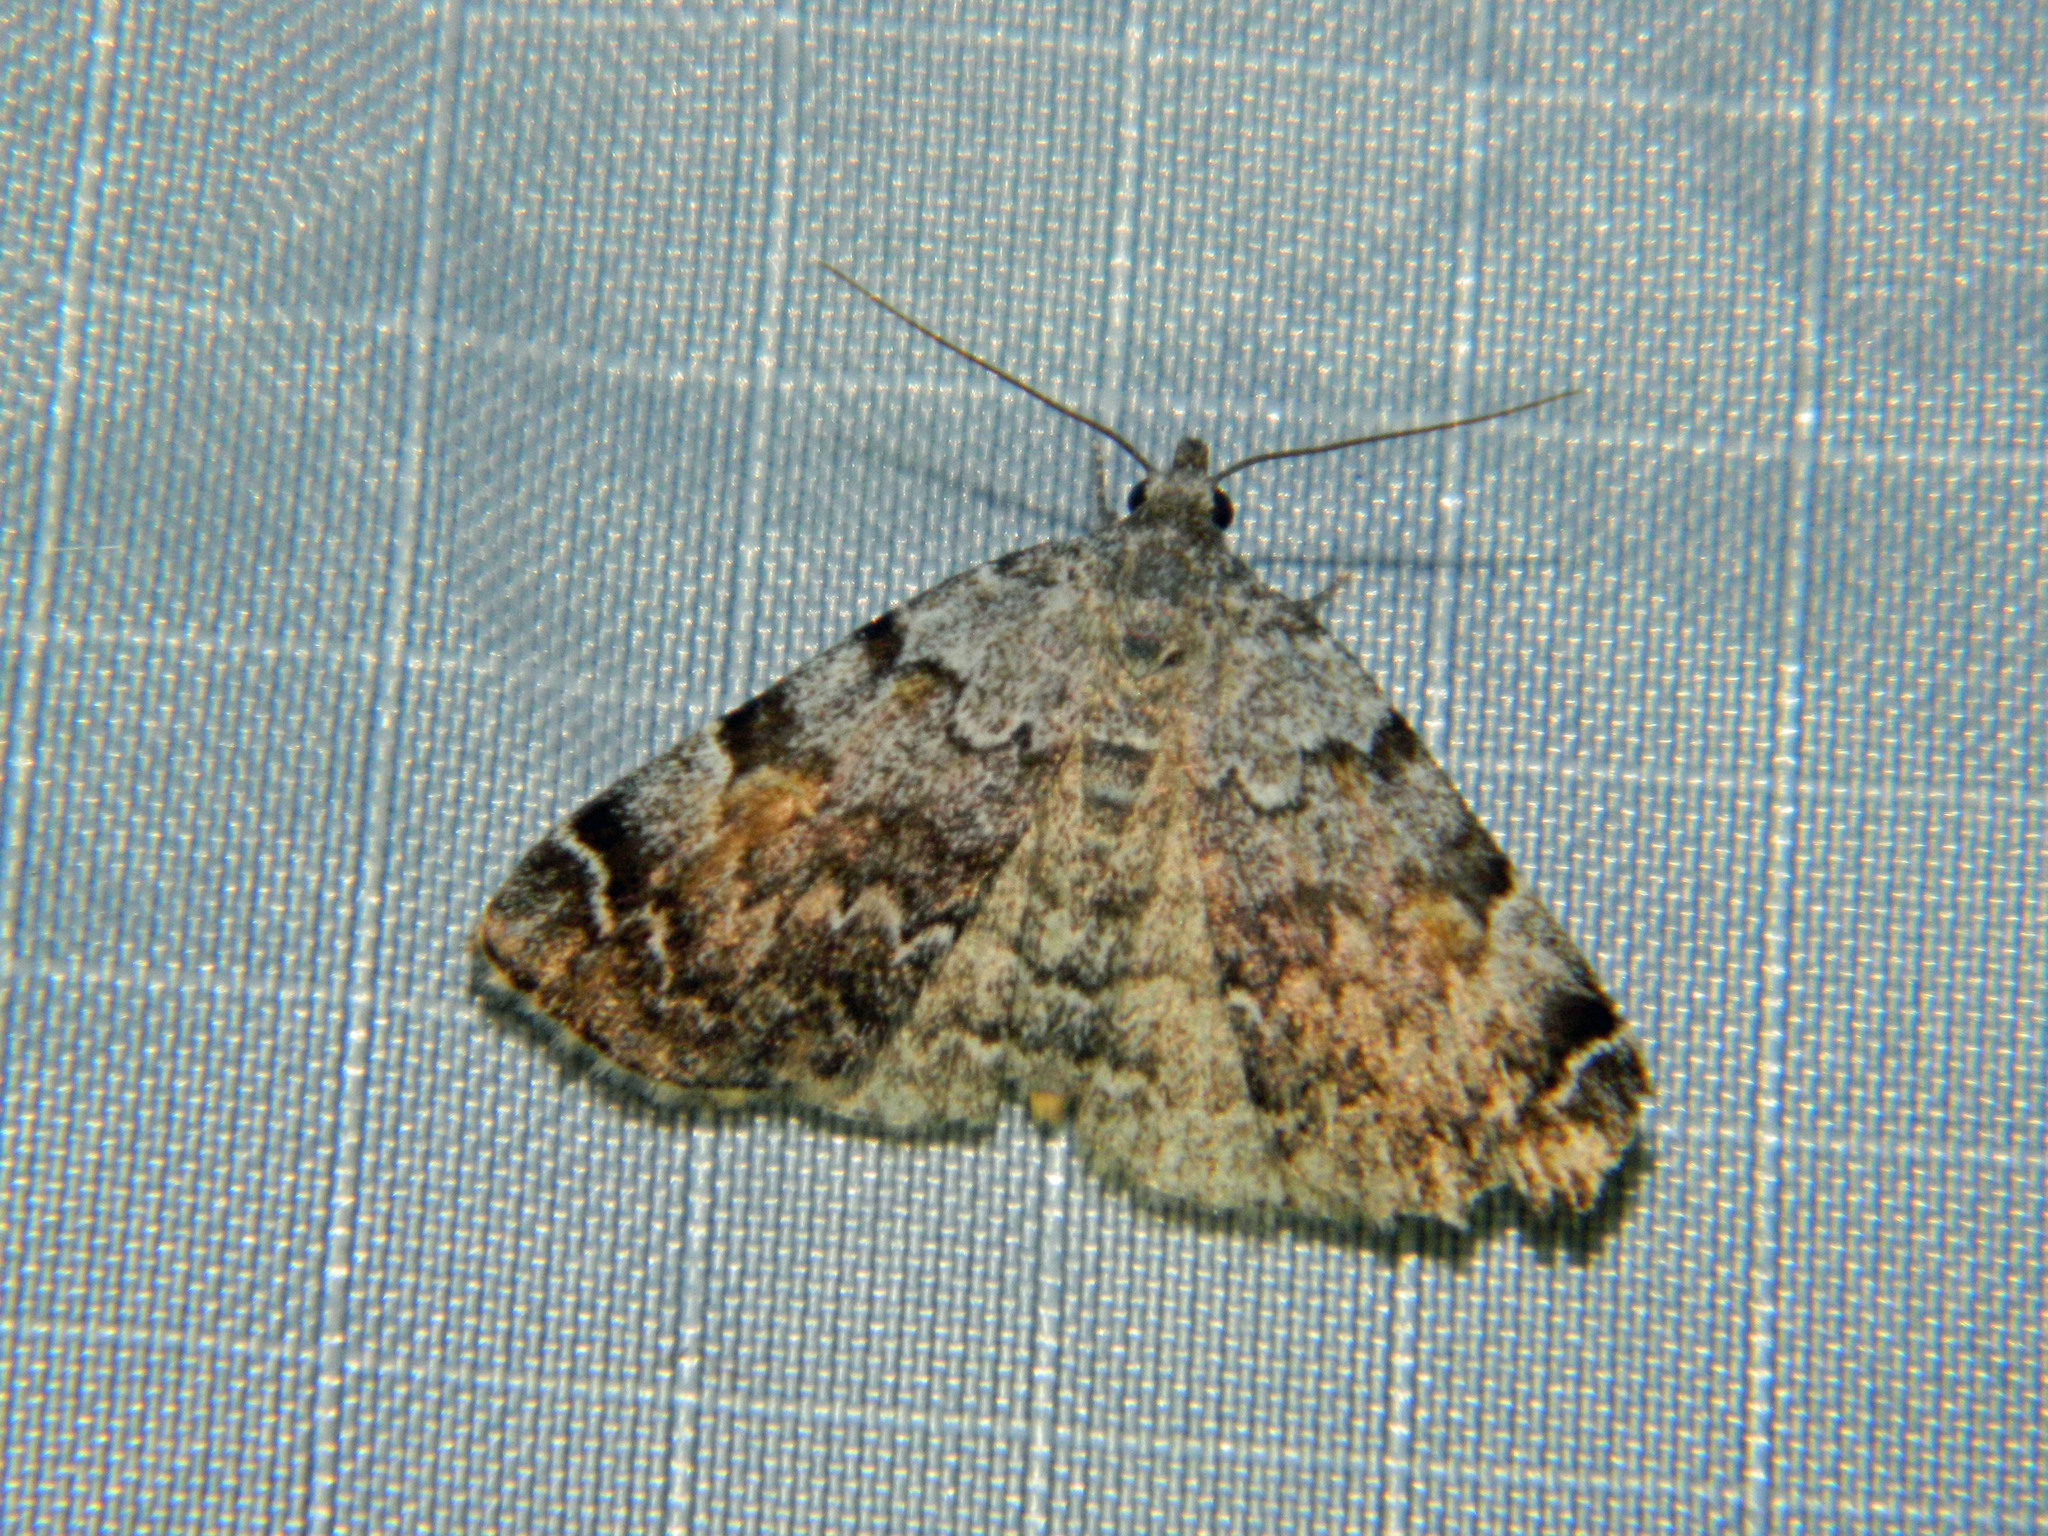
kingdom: Animalia
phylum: Arthropoda
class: Insecta
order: Lepidoptera
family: Erebidae
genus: Idia
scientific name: Idia americalis
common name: American idia moth
